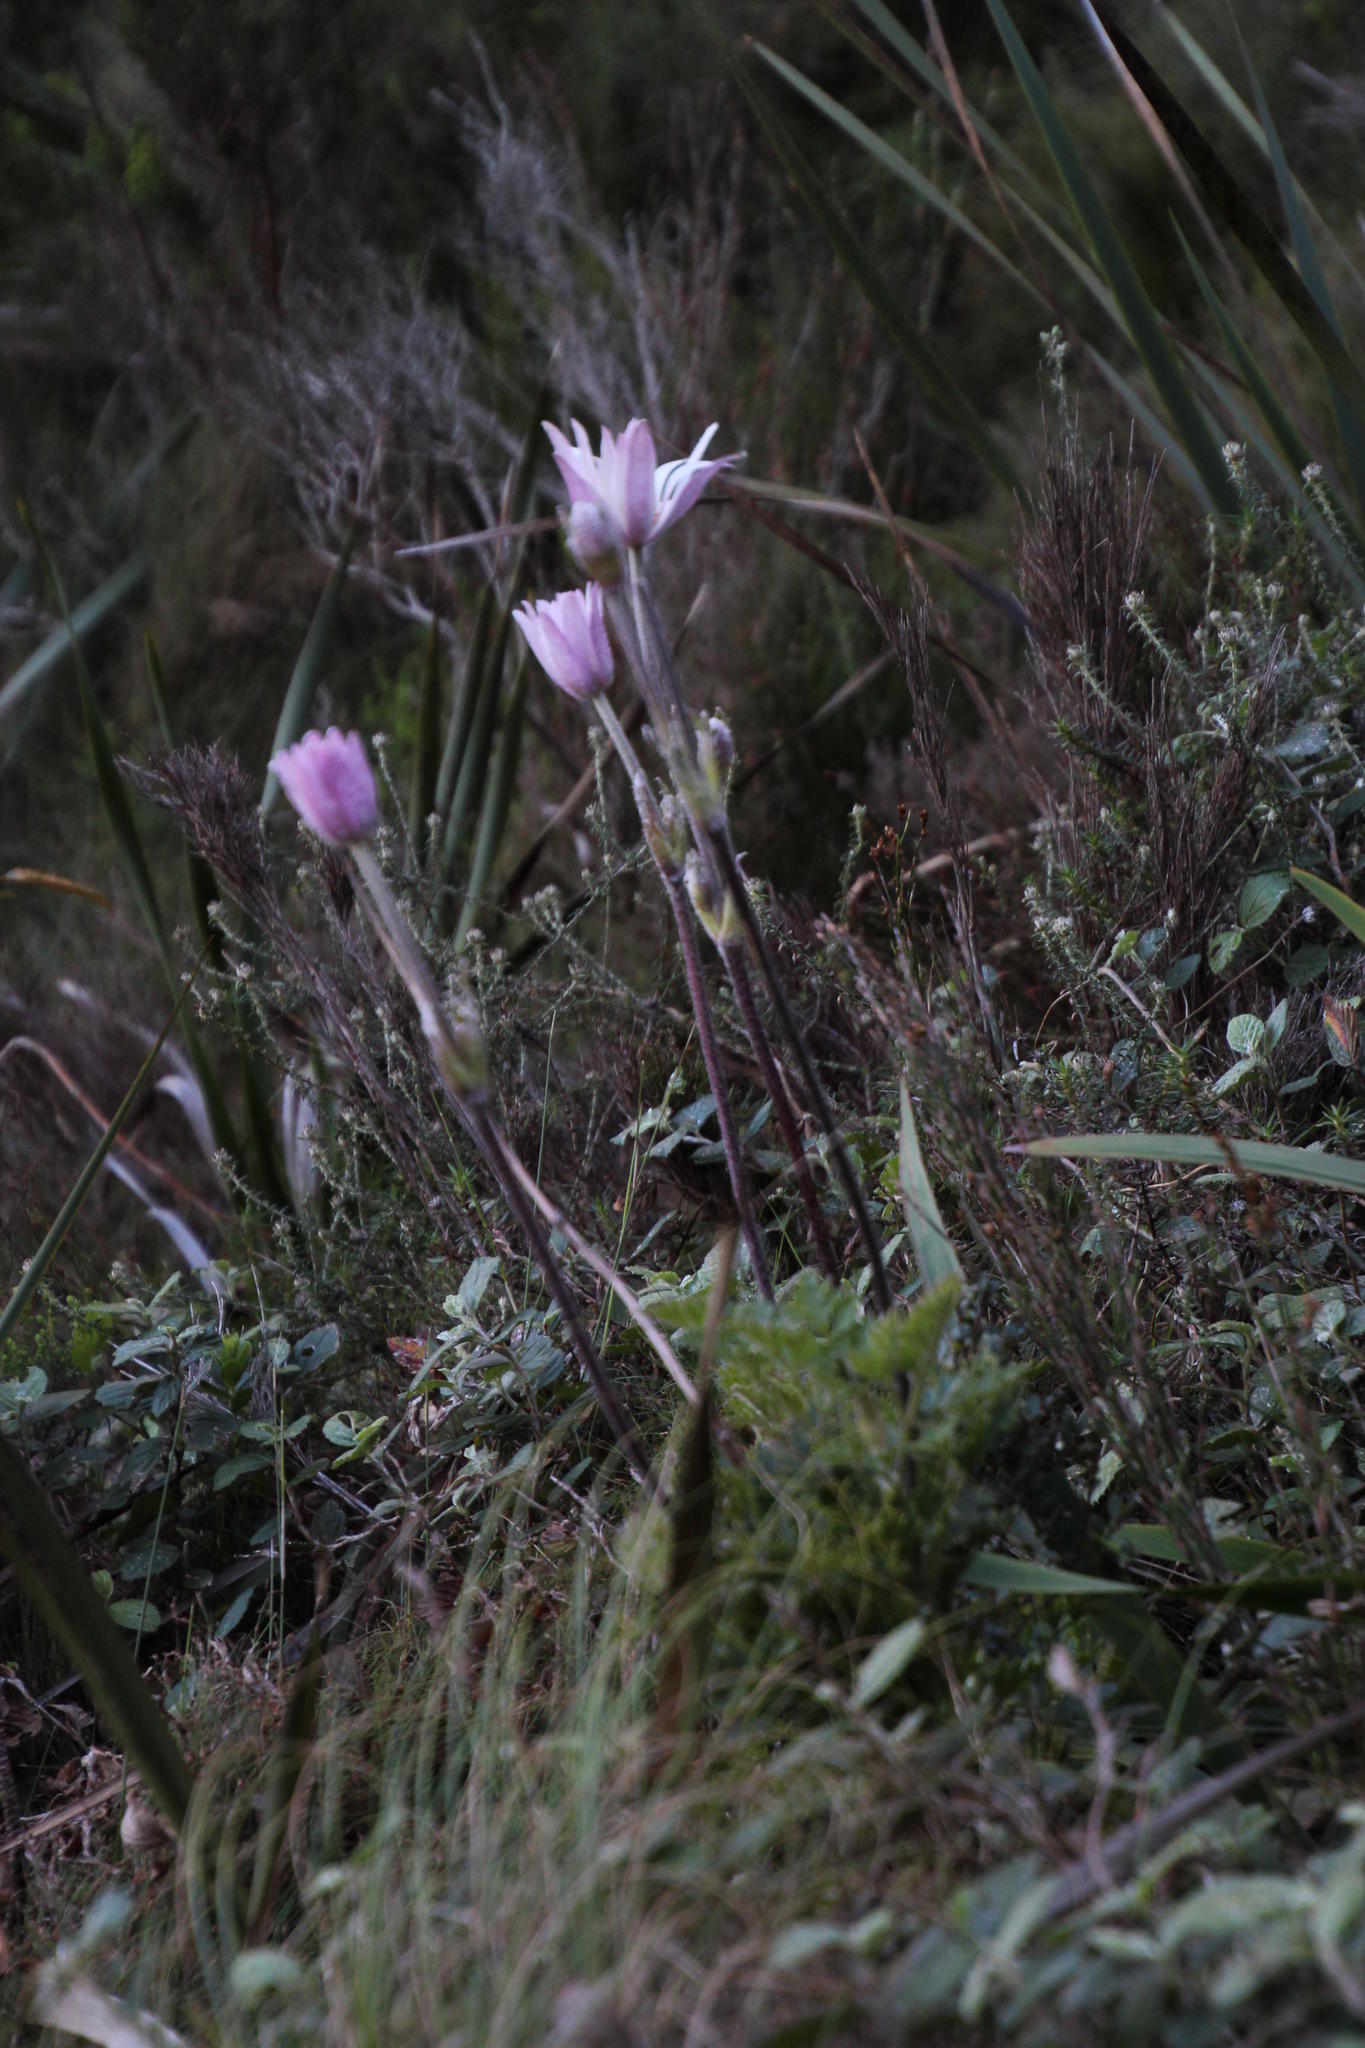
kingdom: Plantae
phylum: Tracheophyta
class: Magnoliopsida
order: Ranunculales
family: Ranunculaceae
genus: Knowltonia
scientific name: Knowltonia tenuifolia
